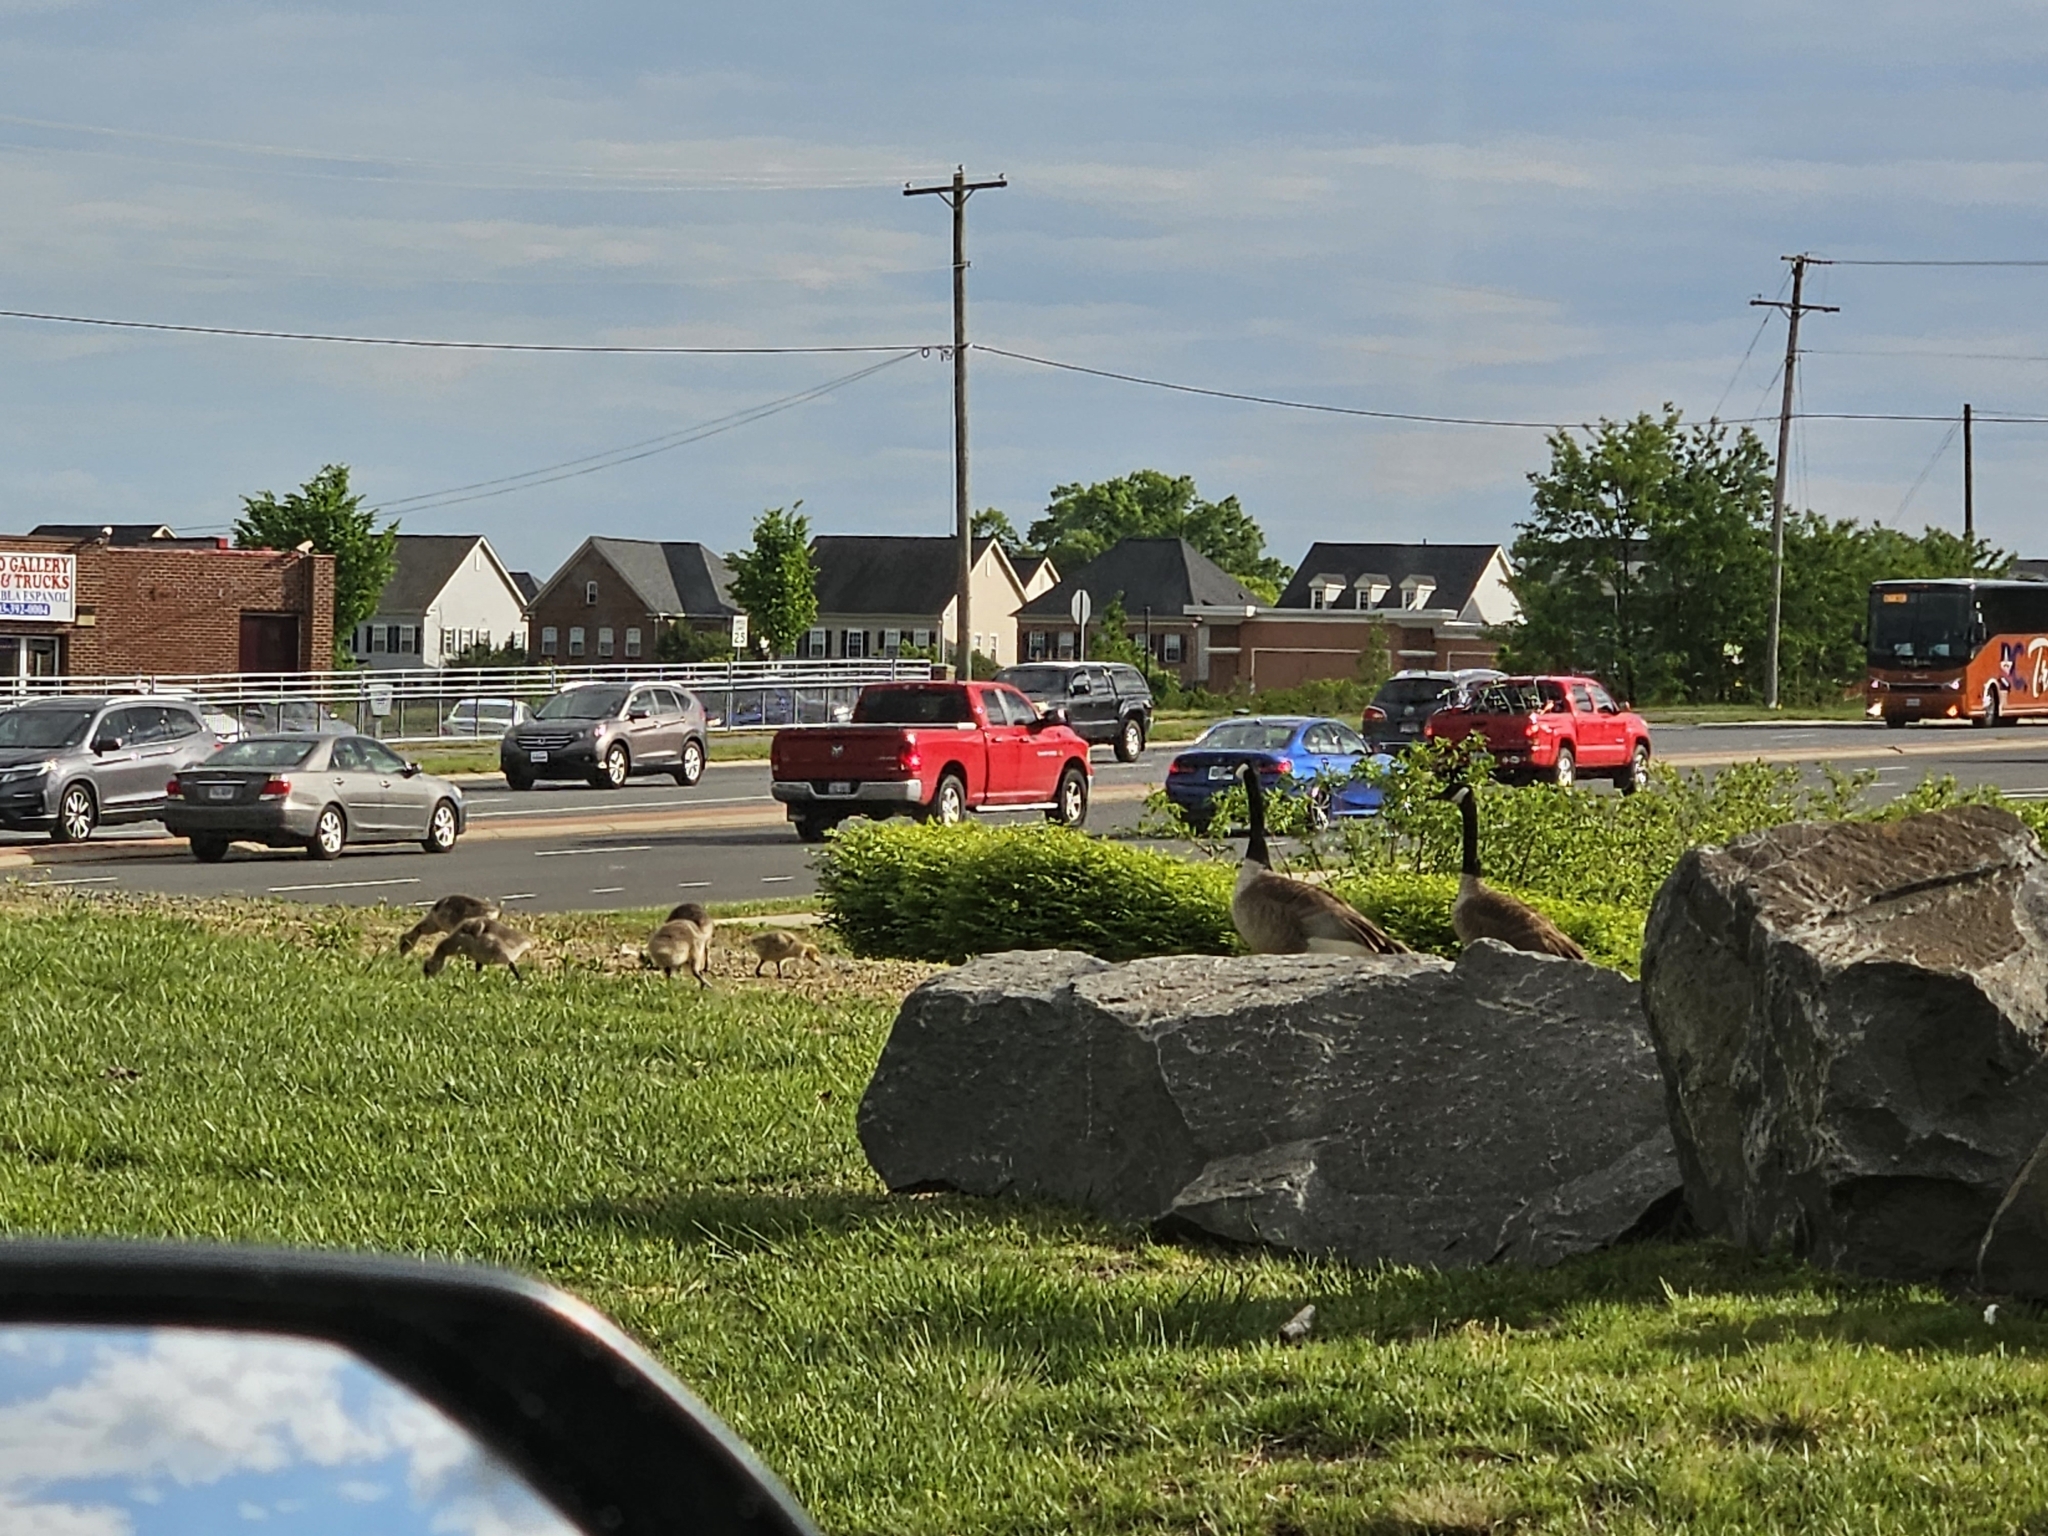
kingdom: Animalia
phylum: Chordata
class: Aves
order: Anseriformes
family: Anatidae
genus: Branta
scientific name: Branta canadensis
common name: Canada goose
